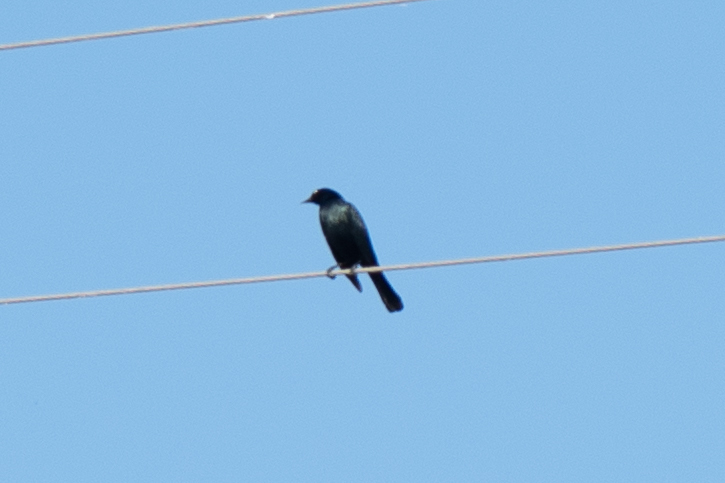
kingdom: Animalia
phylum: Chordata
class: Aves
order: Passeriformes
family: Icteridae
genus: Euphagus
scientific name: Euphagus cyanocephalus
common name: Brewer's blackbird
